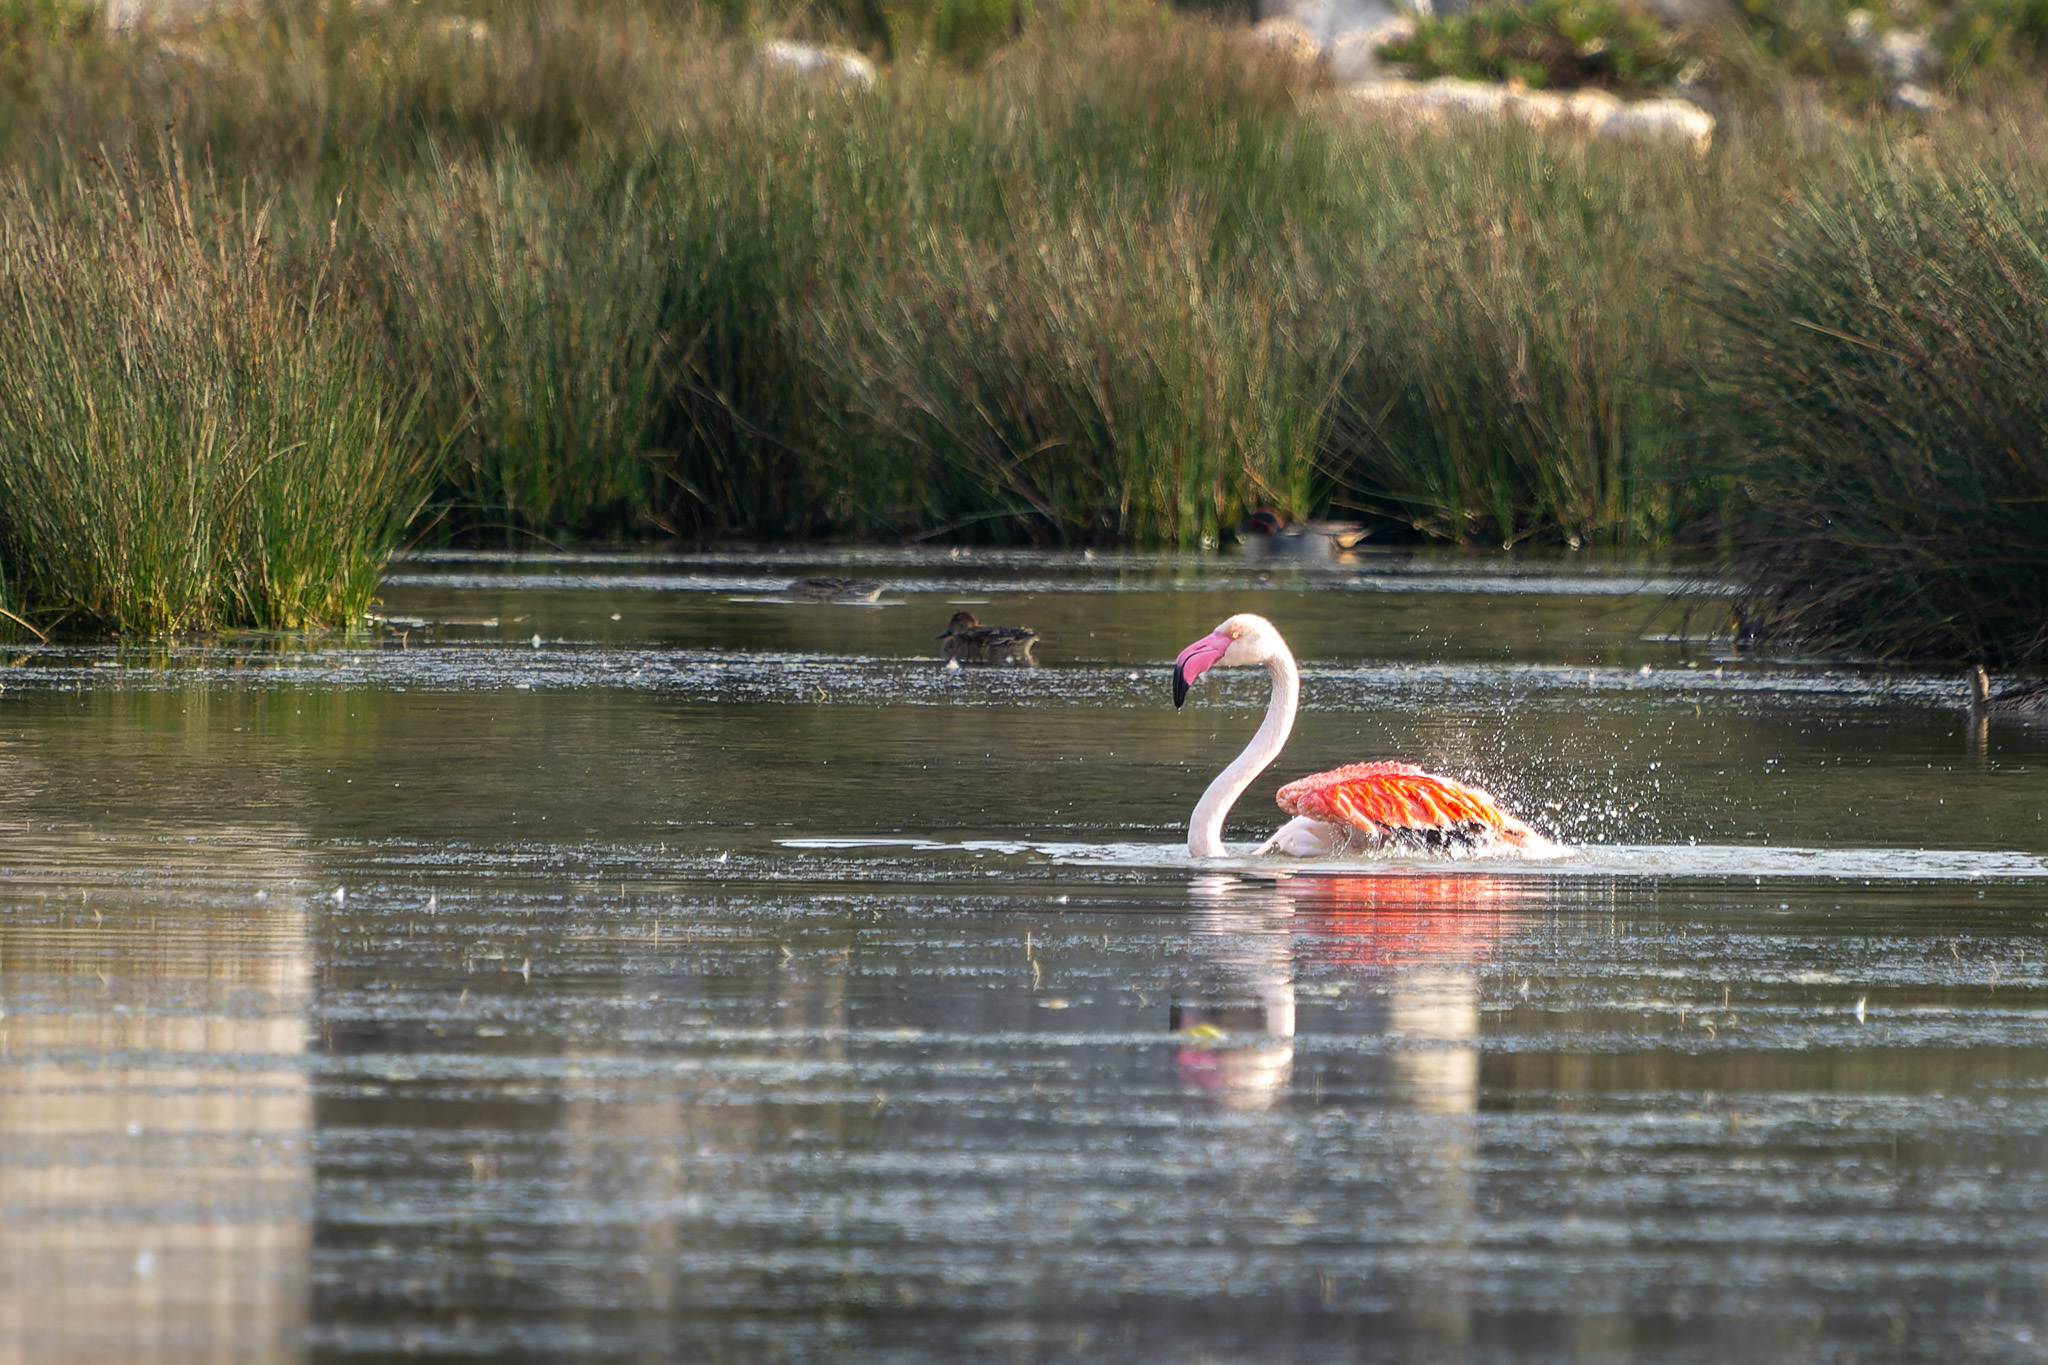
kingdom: Animalia
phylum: Chordata
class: Aves
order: Phoenicopteriformes
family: Phoenicopteridae
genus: Phoenicopterus
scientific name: Phoenicopterus roseus
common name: Greater flamingo
